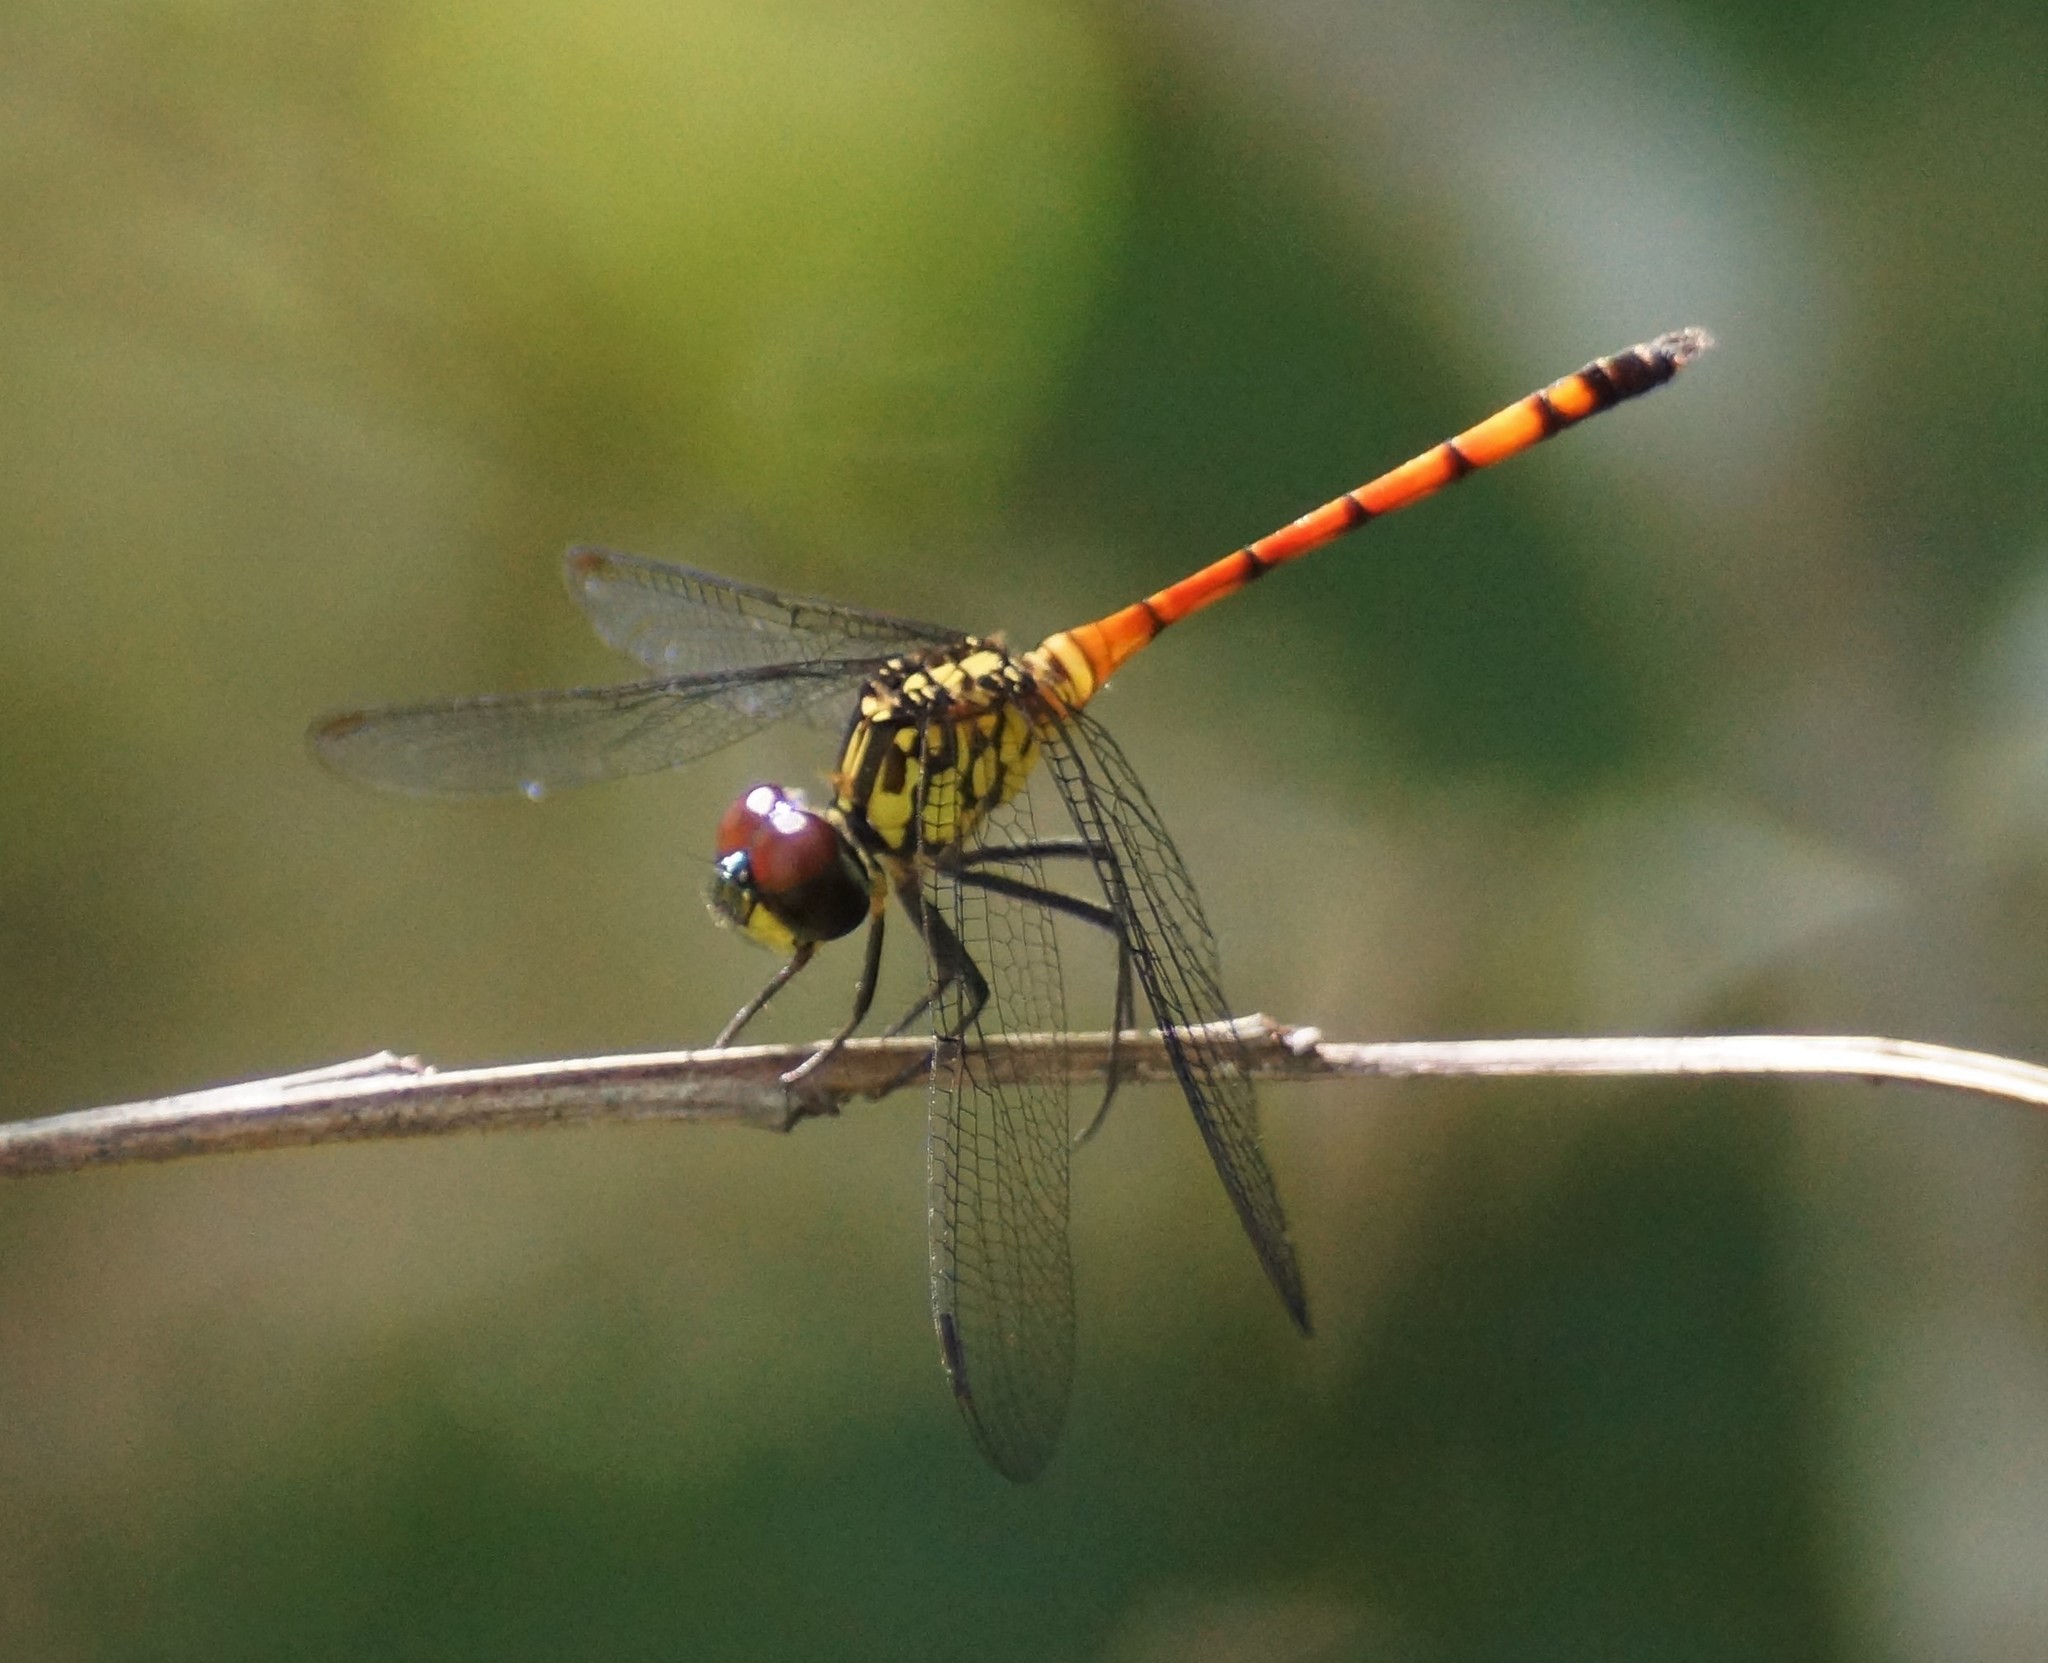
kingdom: Animalia
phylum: Arthropoda
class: Insecta
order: Odonata
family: Libellulidae
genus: Agrionoptera
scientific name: Agrionoptera insignis
